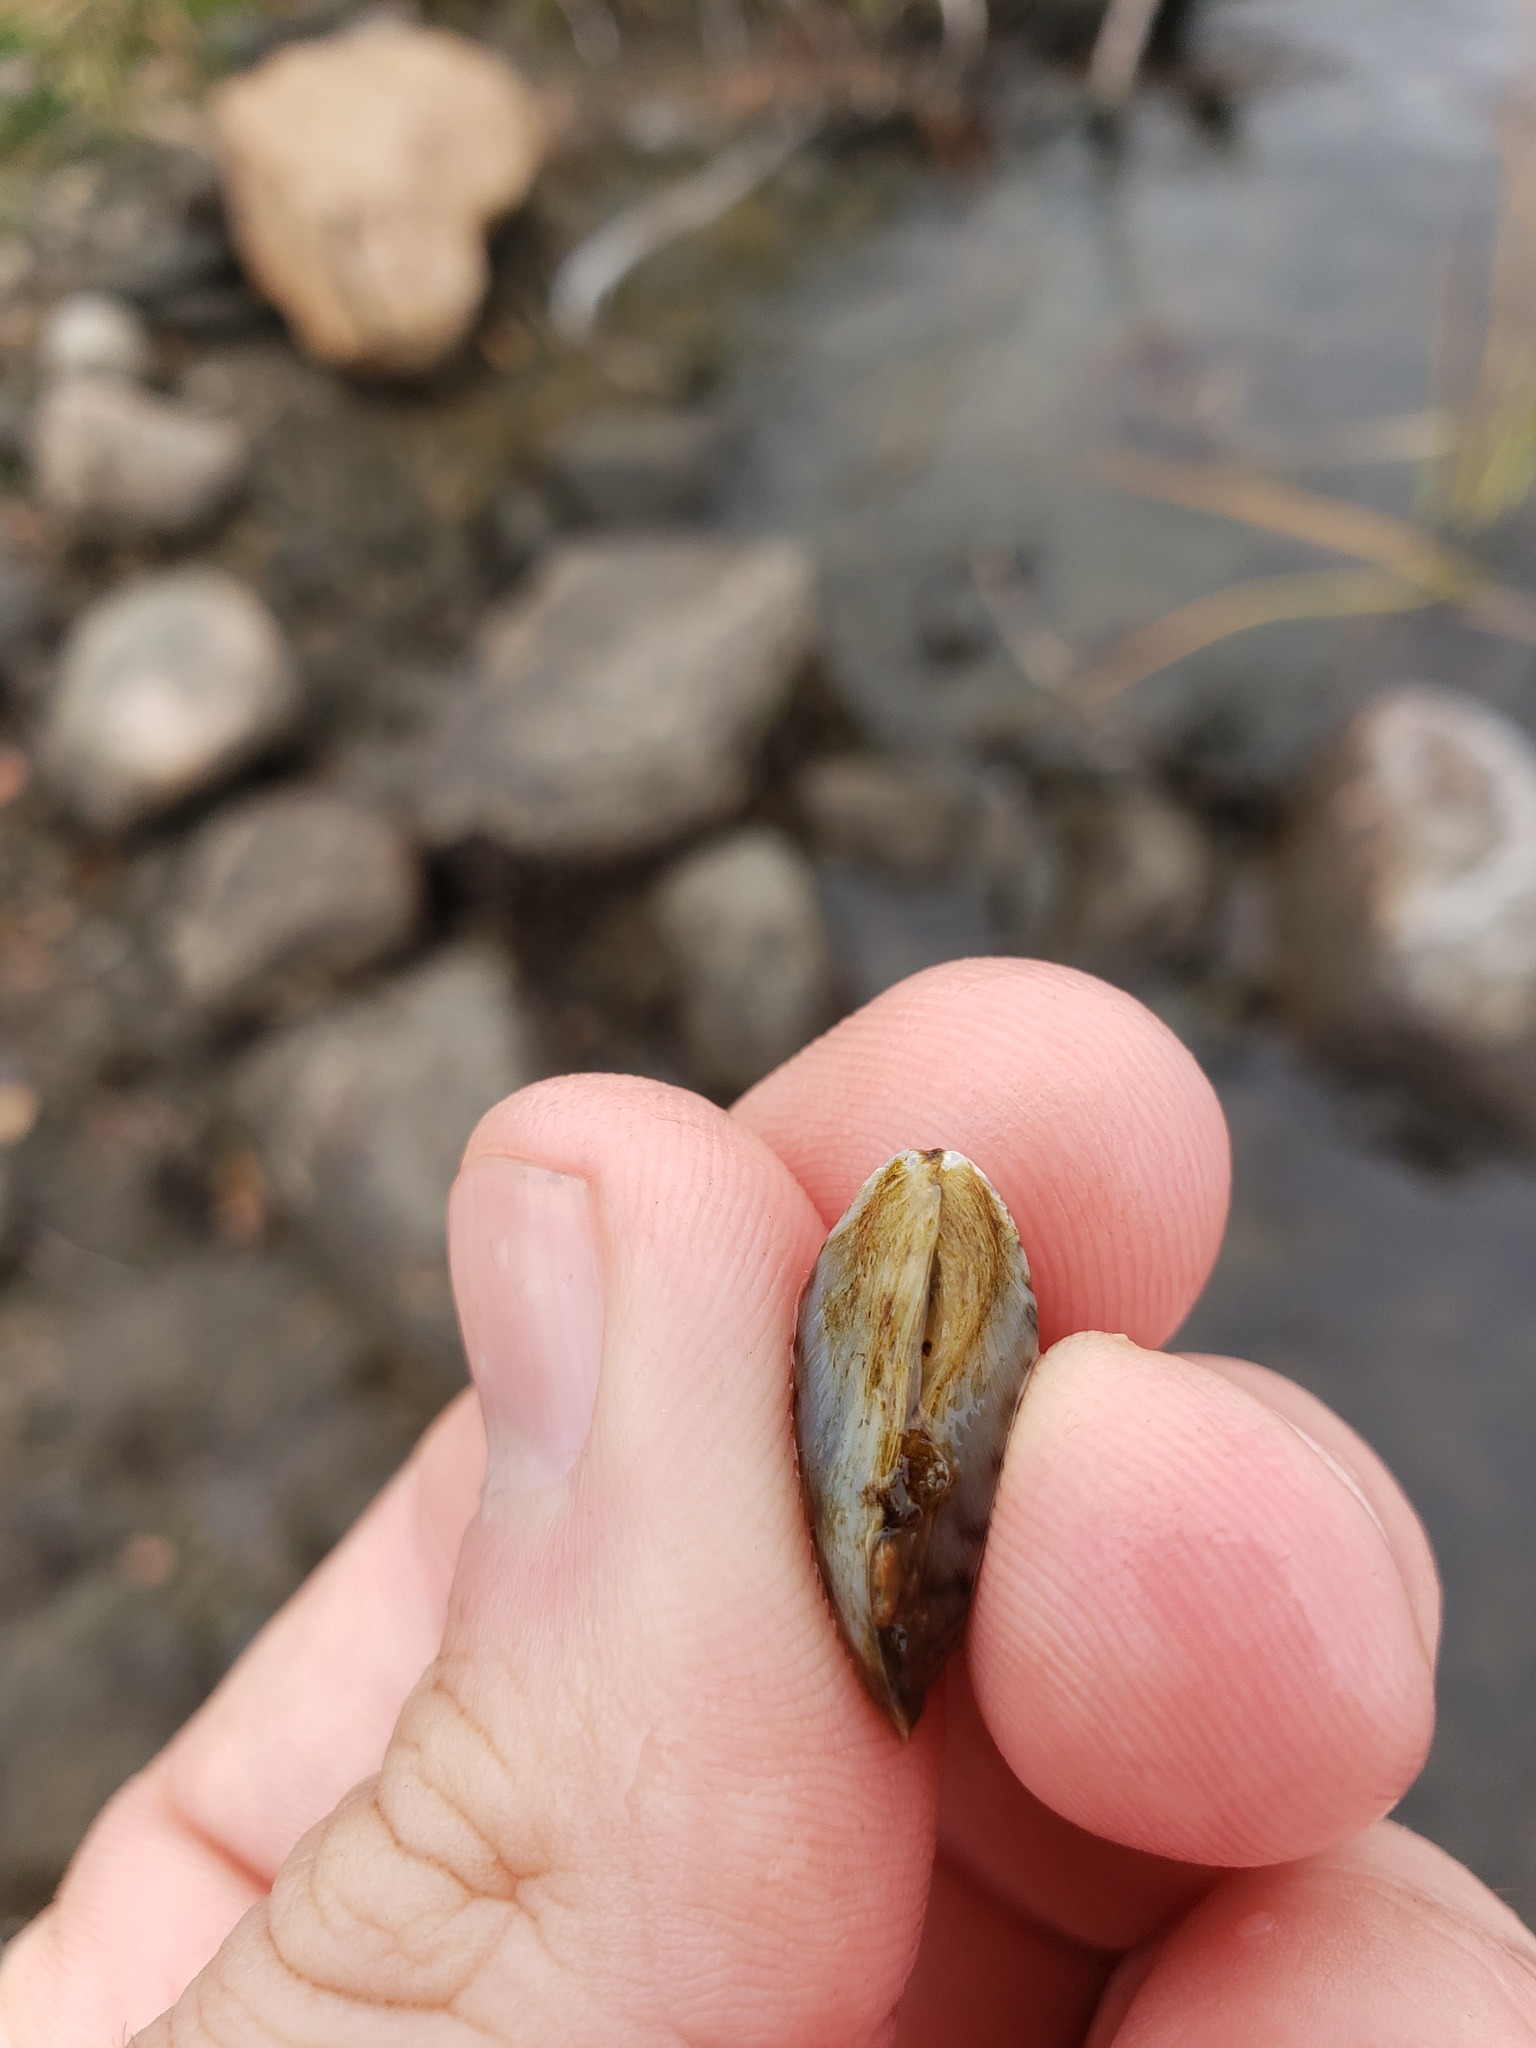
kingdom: Animalia
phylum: Mollusca
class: Bivalvia
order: Myida
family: Dreissenidae
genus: Dreissena
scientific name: Dreissena polymorpha
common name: Zebra mussel
